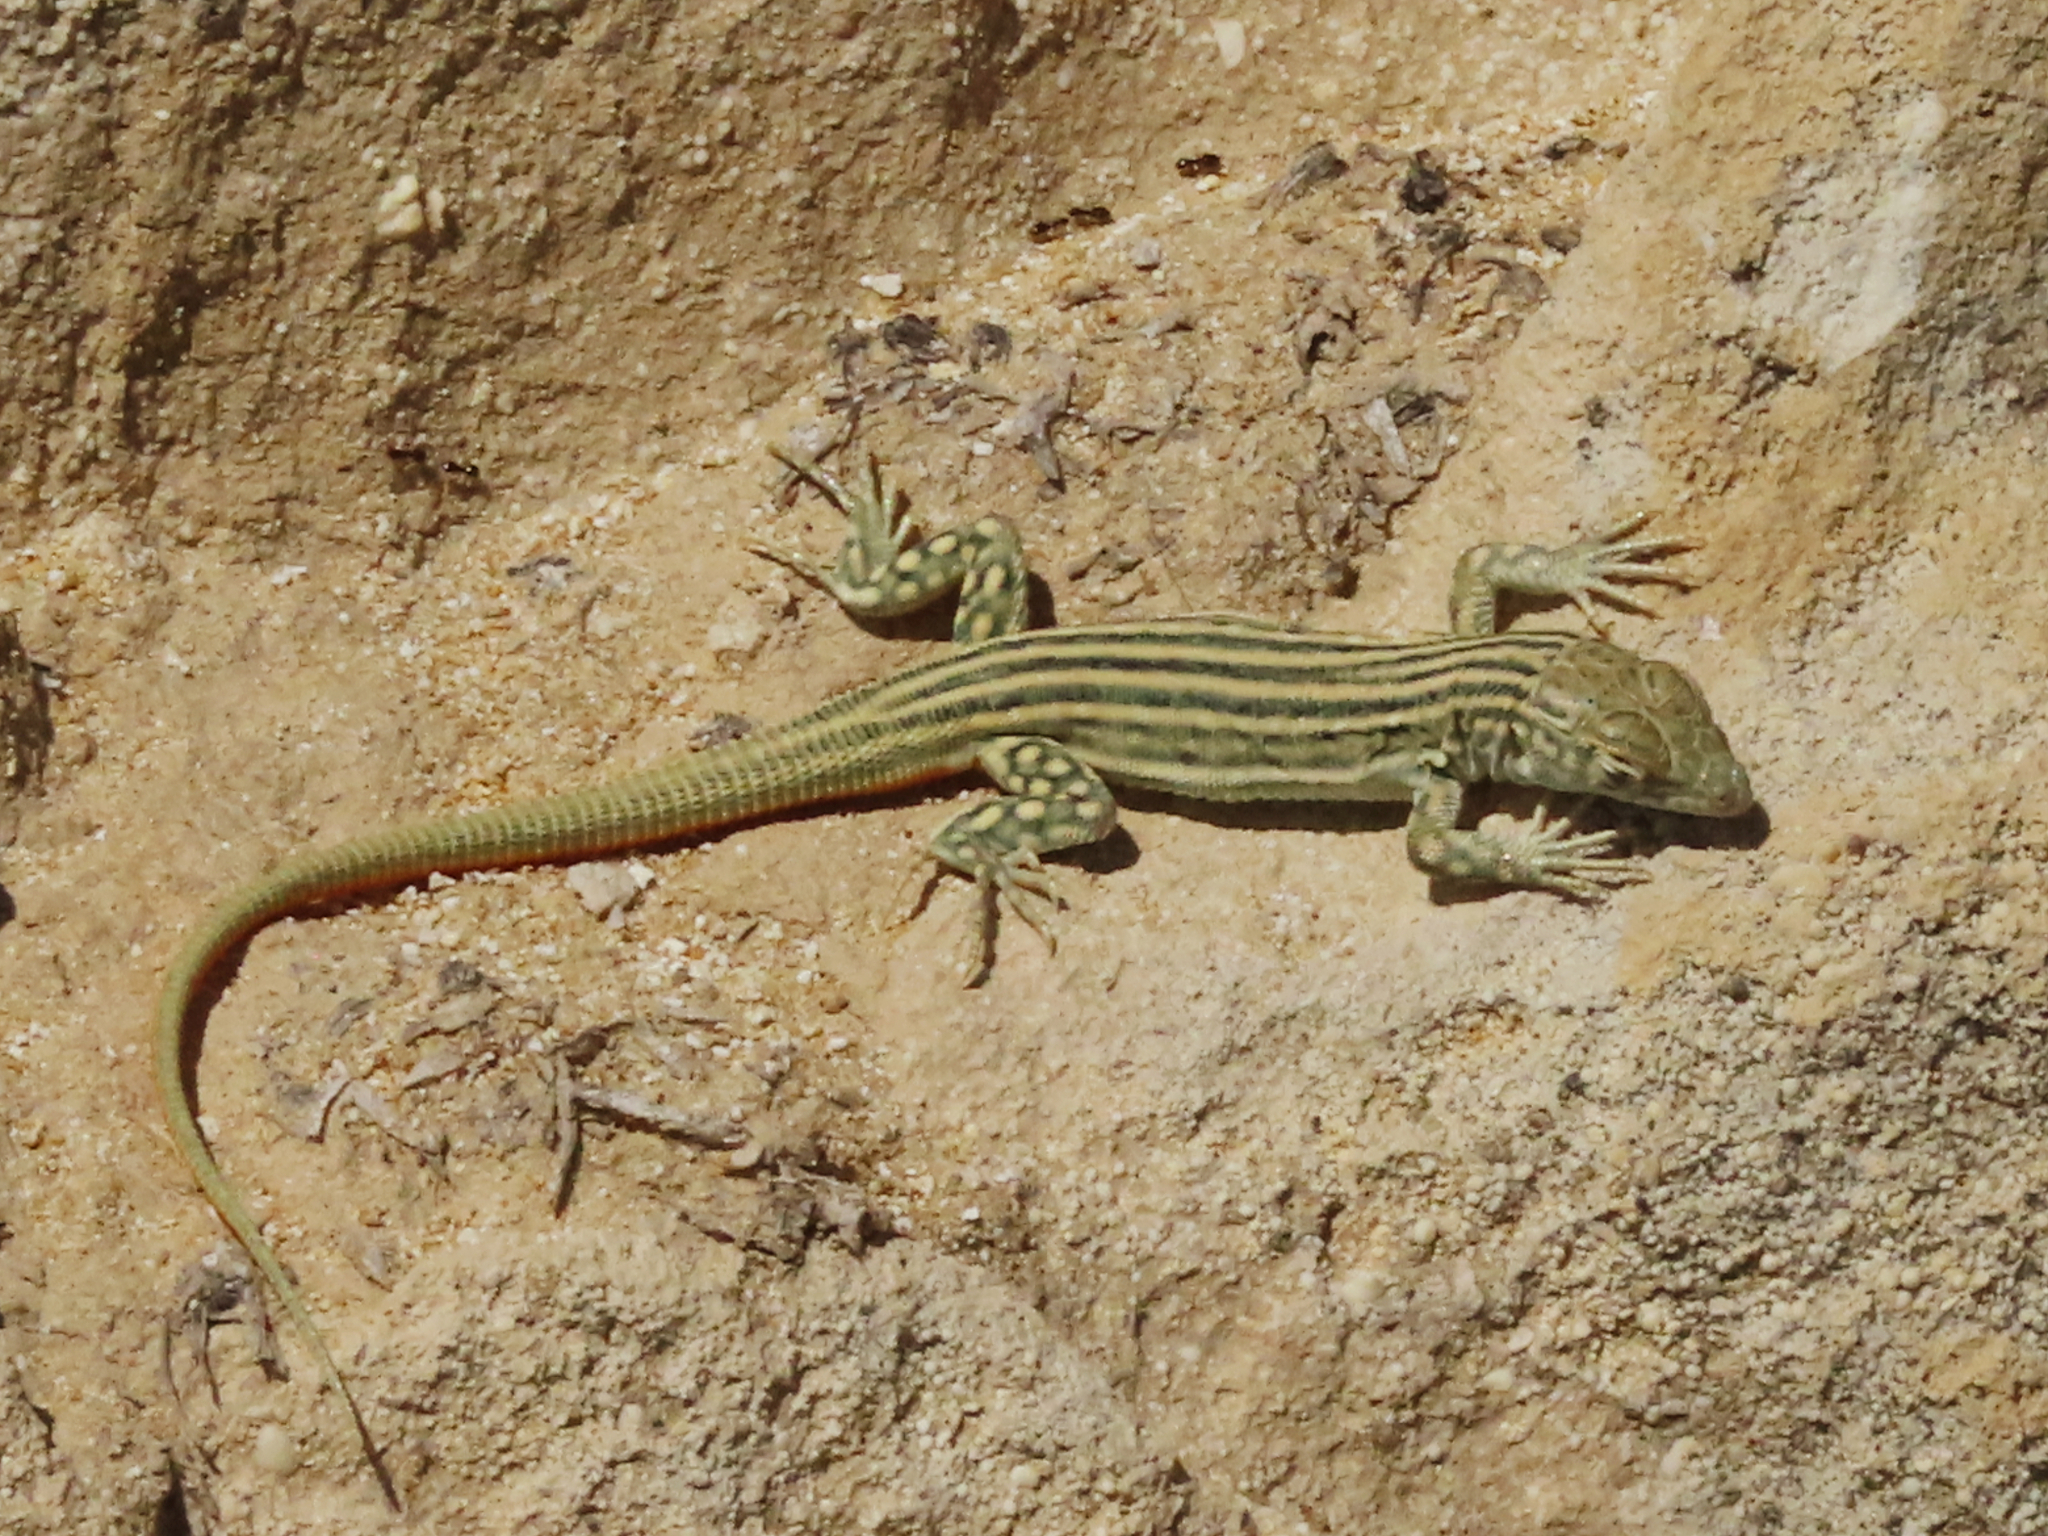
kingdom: Animalia
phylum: Chordata
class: Squamata
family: Lacertidae
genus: Eremias
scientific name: Eremias velox
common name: Central asian racerunner
